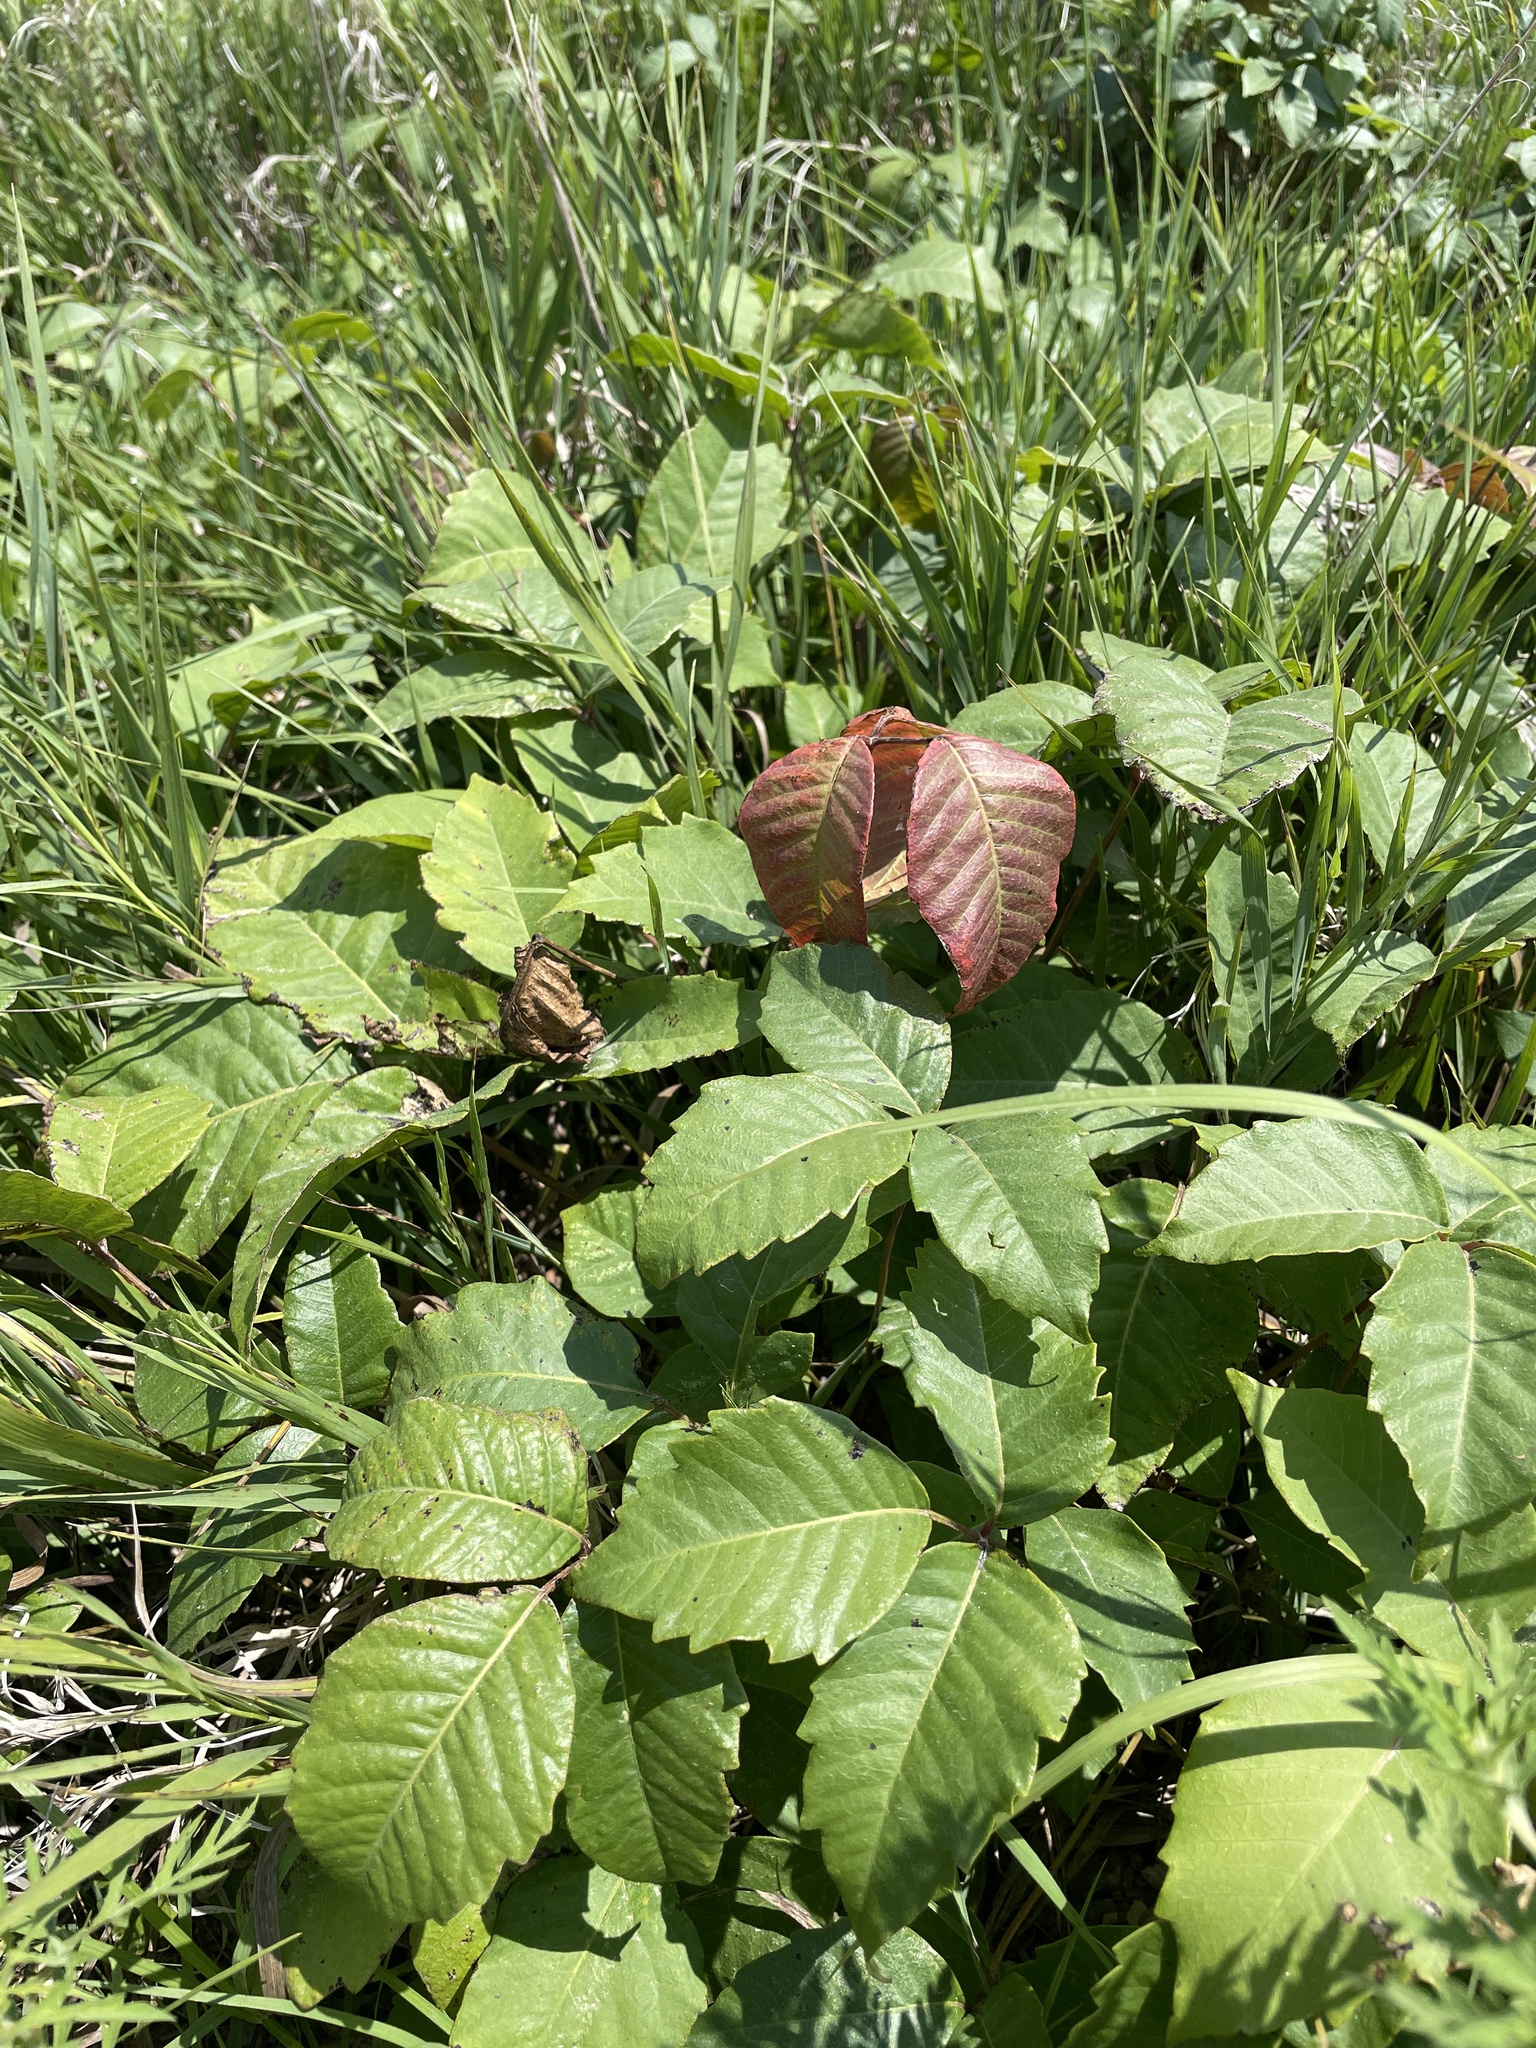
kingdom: Plantae
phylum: Tracheophyta
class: Magnoliopsida
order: Sapindales
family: Anacardiaceae
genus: Toxicodendron
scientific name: Toxicodendron rydbergii
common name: Rydberg's poison-ivy
